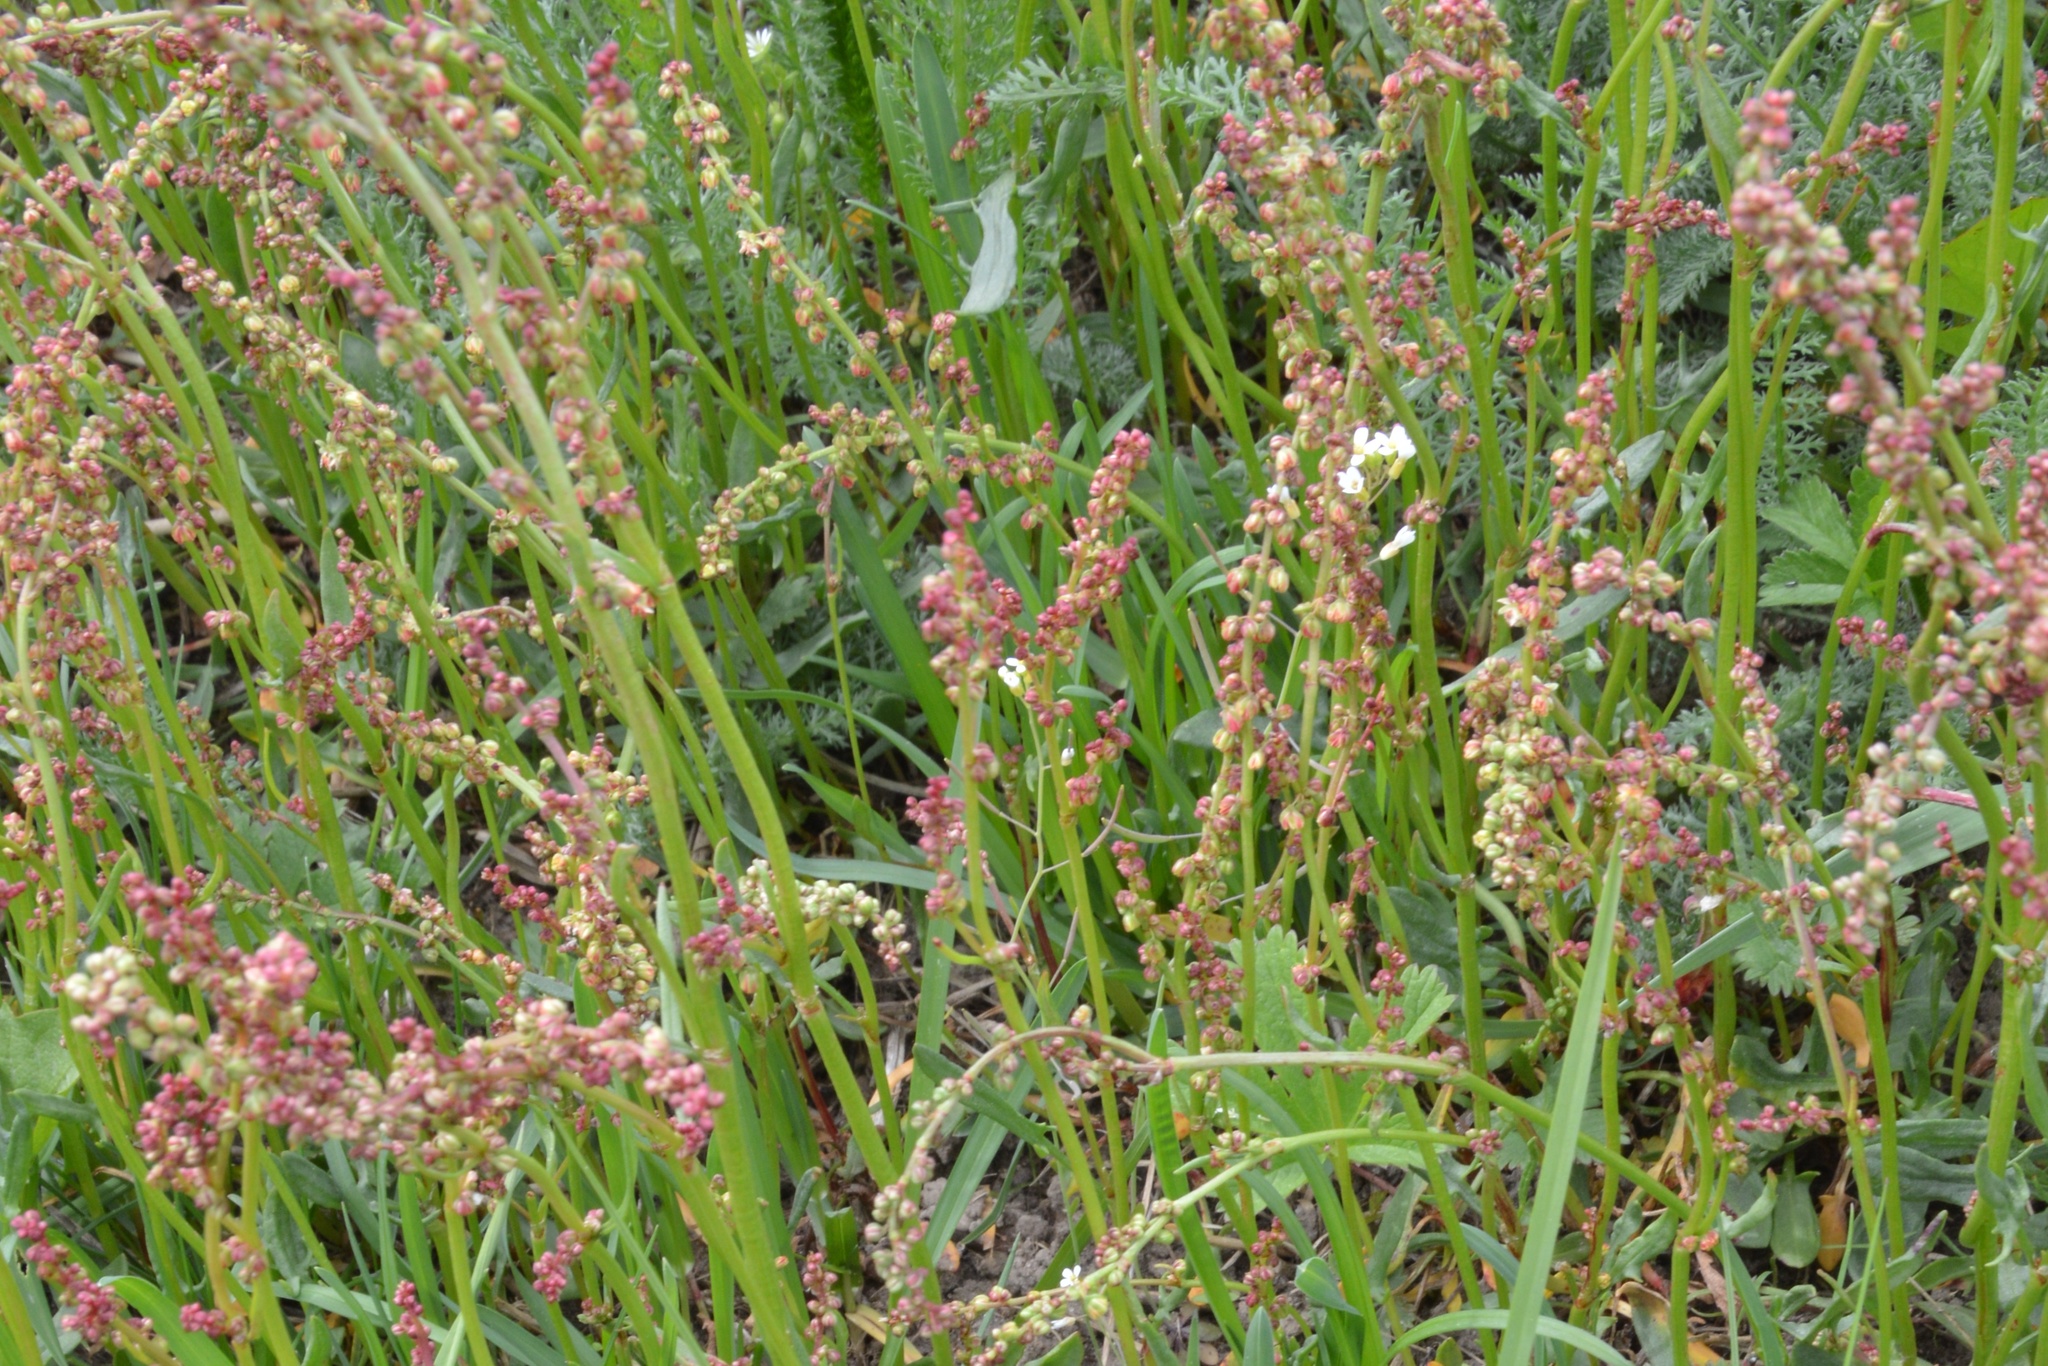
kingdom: Plantae
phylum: Tracheophyta
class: Magnoliopsida
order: Caryophyllales
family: Polygonaceae
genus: Rumex
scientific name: Rumex acetosella
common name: Common sheep sorrel
